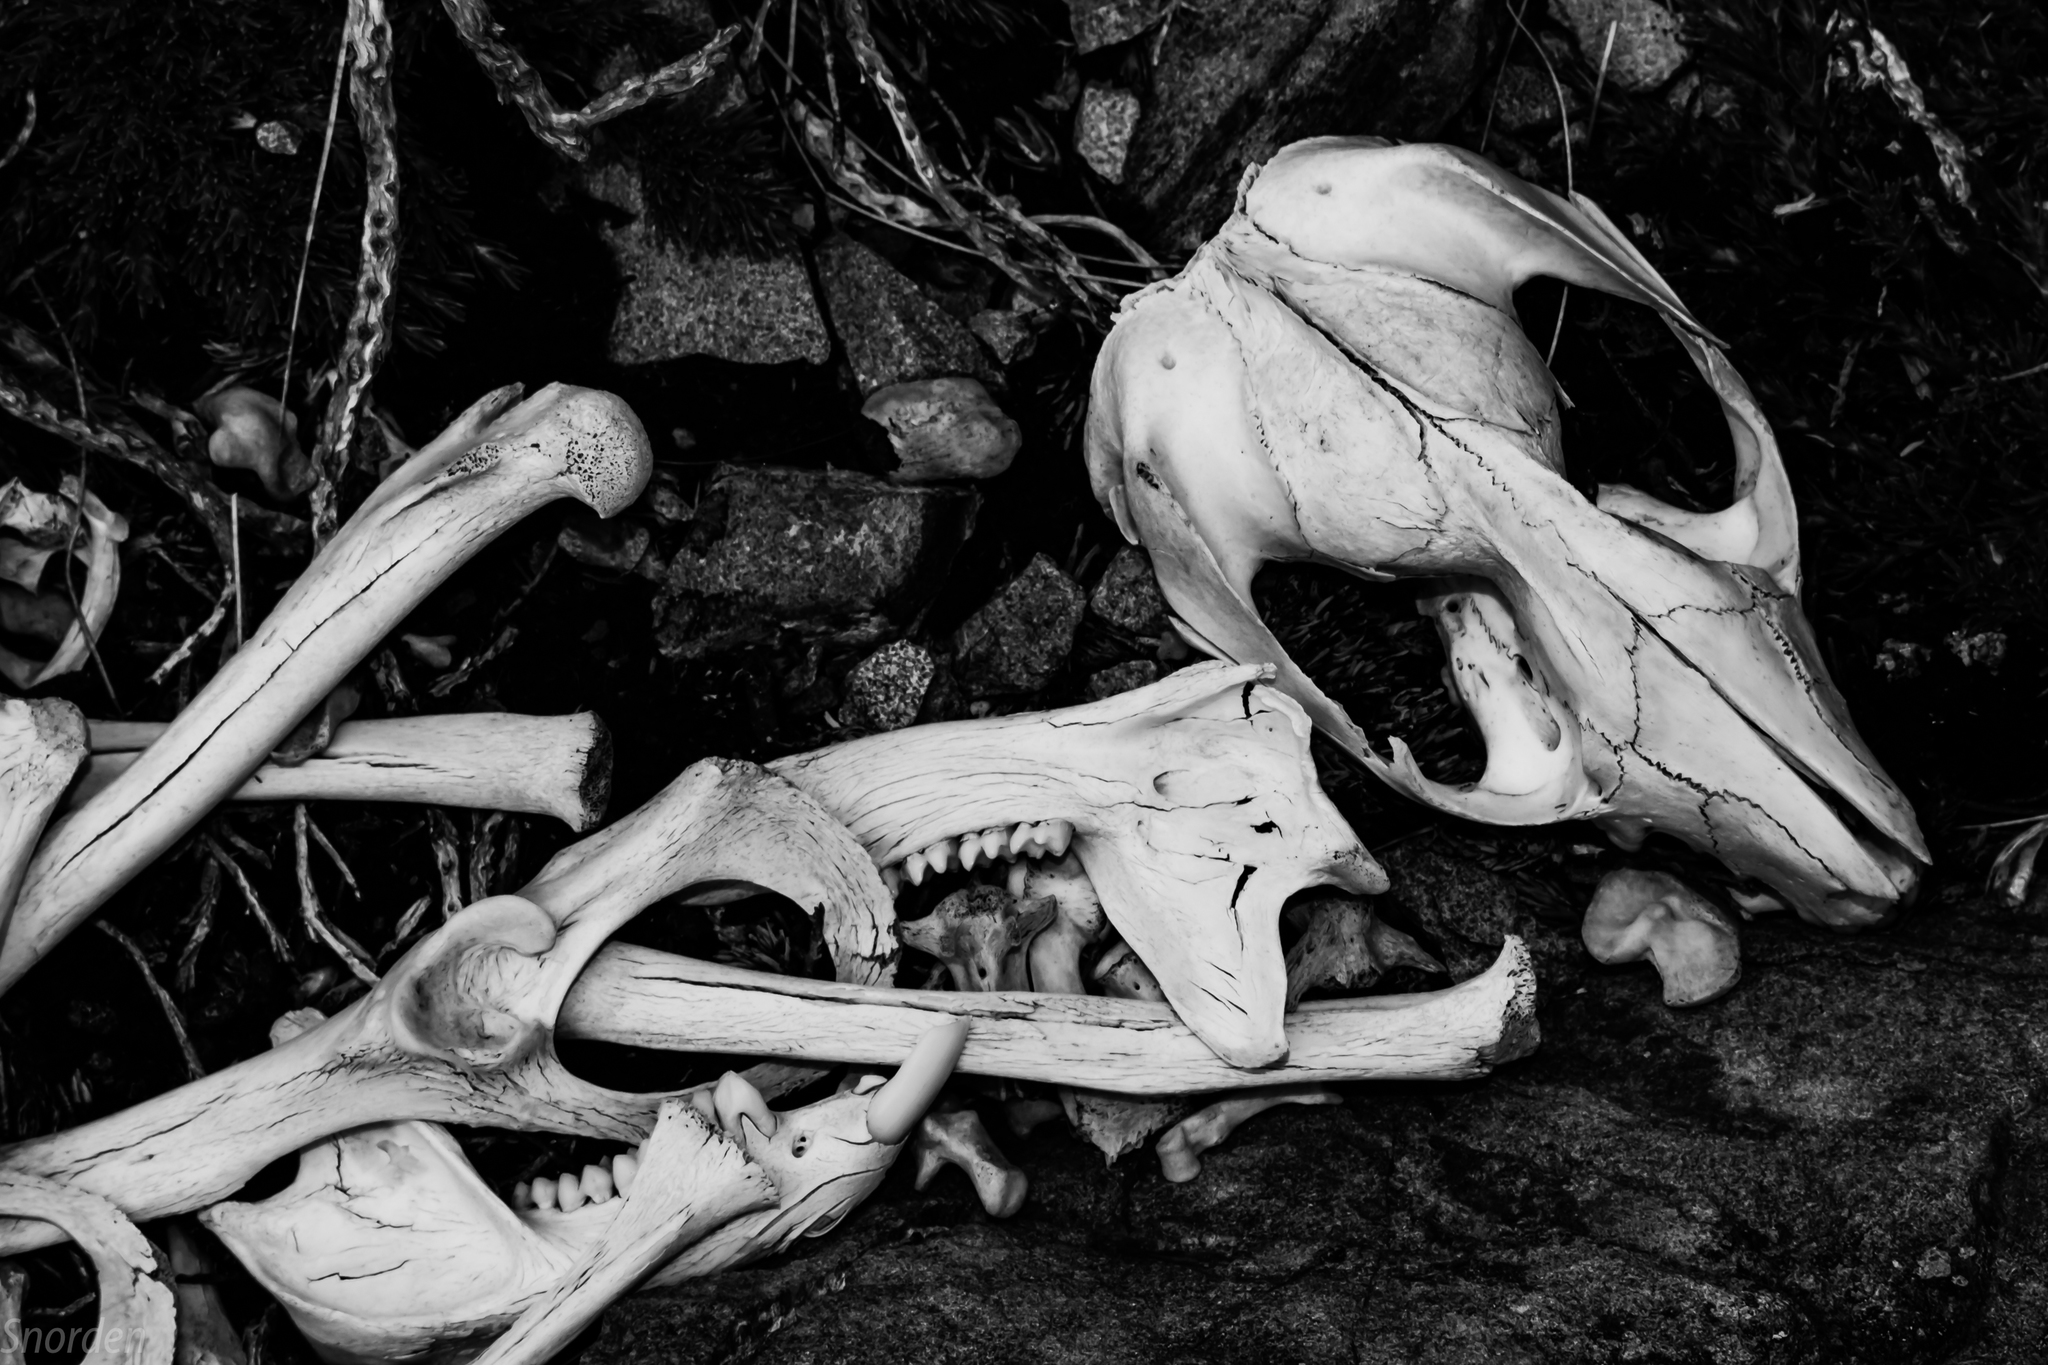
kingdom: Animalia
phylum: Chordata
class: Mammalia
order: Diprotodontia
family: Phalangeridae
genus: Trichosurus
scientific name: Trichosurus vulpecula
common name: Common brushtail
